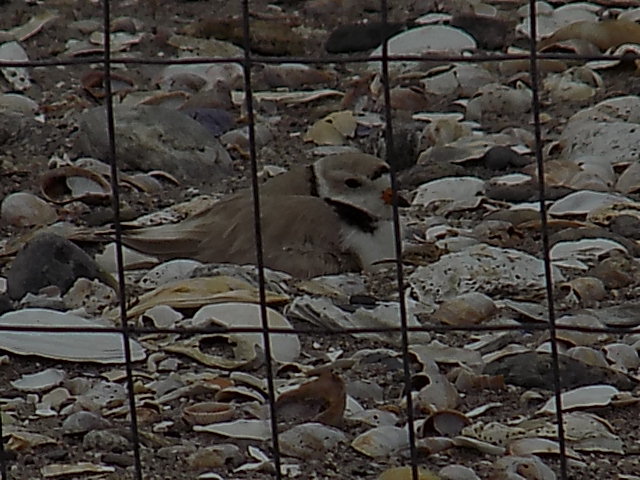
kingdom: Animalia
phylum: Chordata
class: Aves
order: Charadriiformes
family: Charadriidae
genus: Charadrius
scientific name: Charadrius melodus
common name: Piping plover
